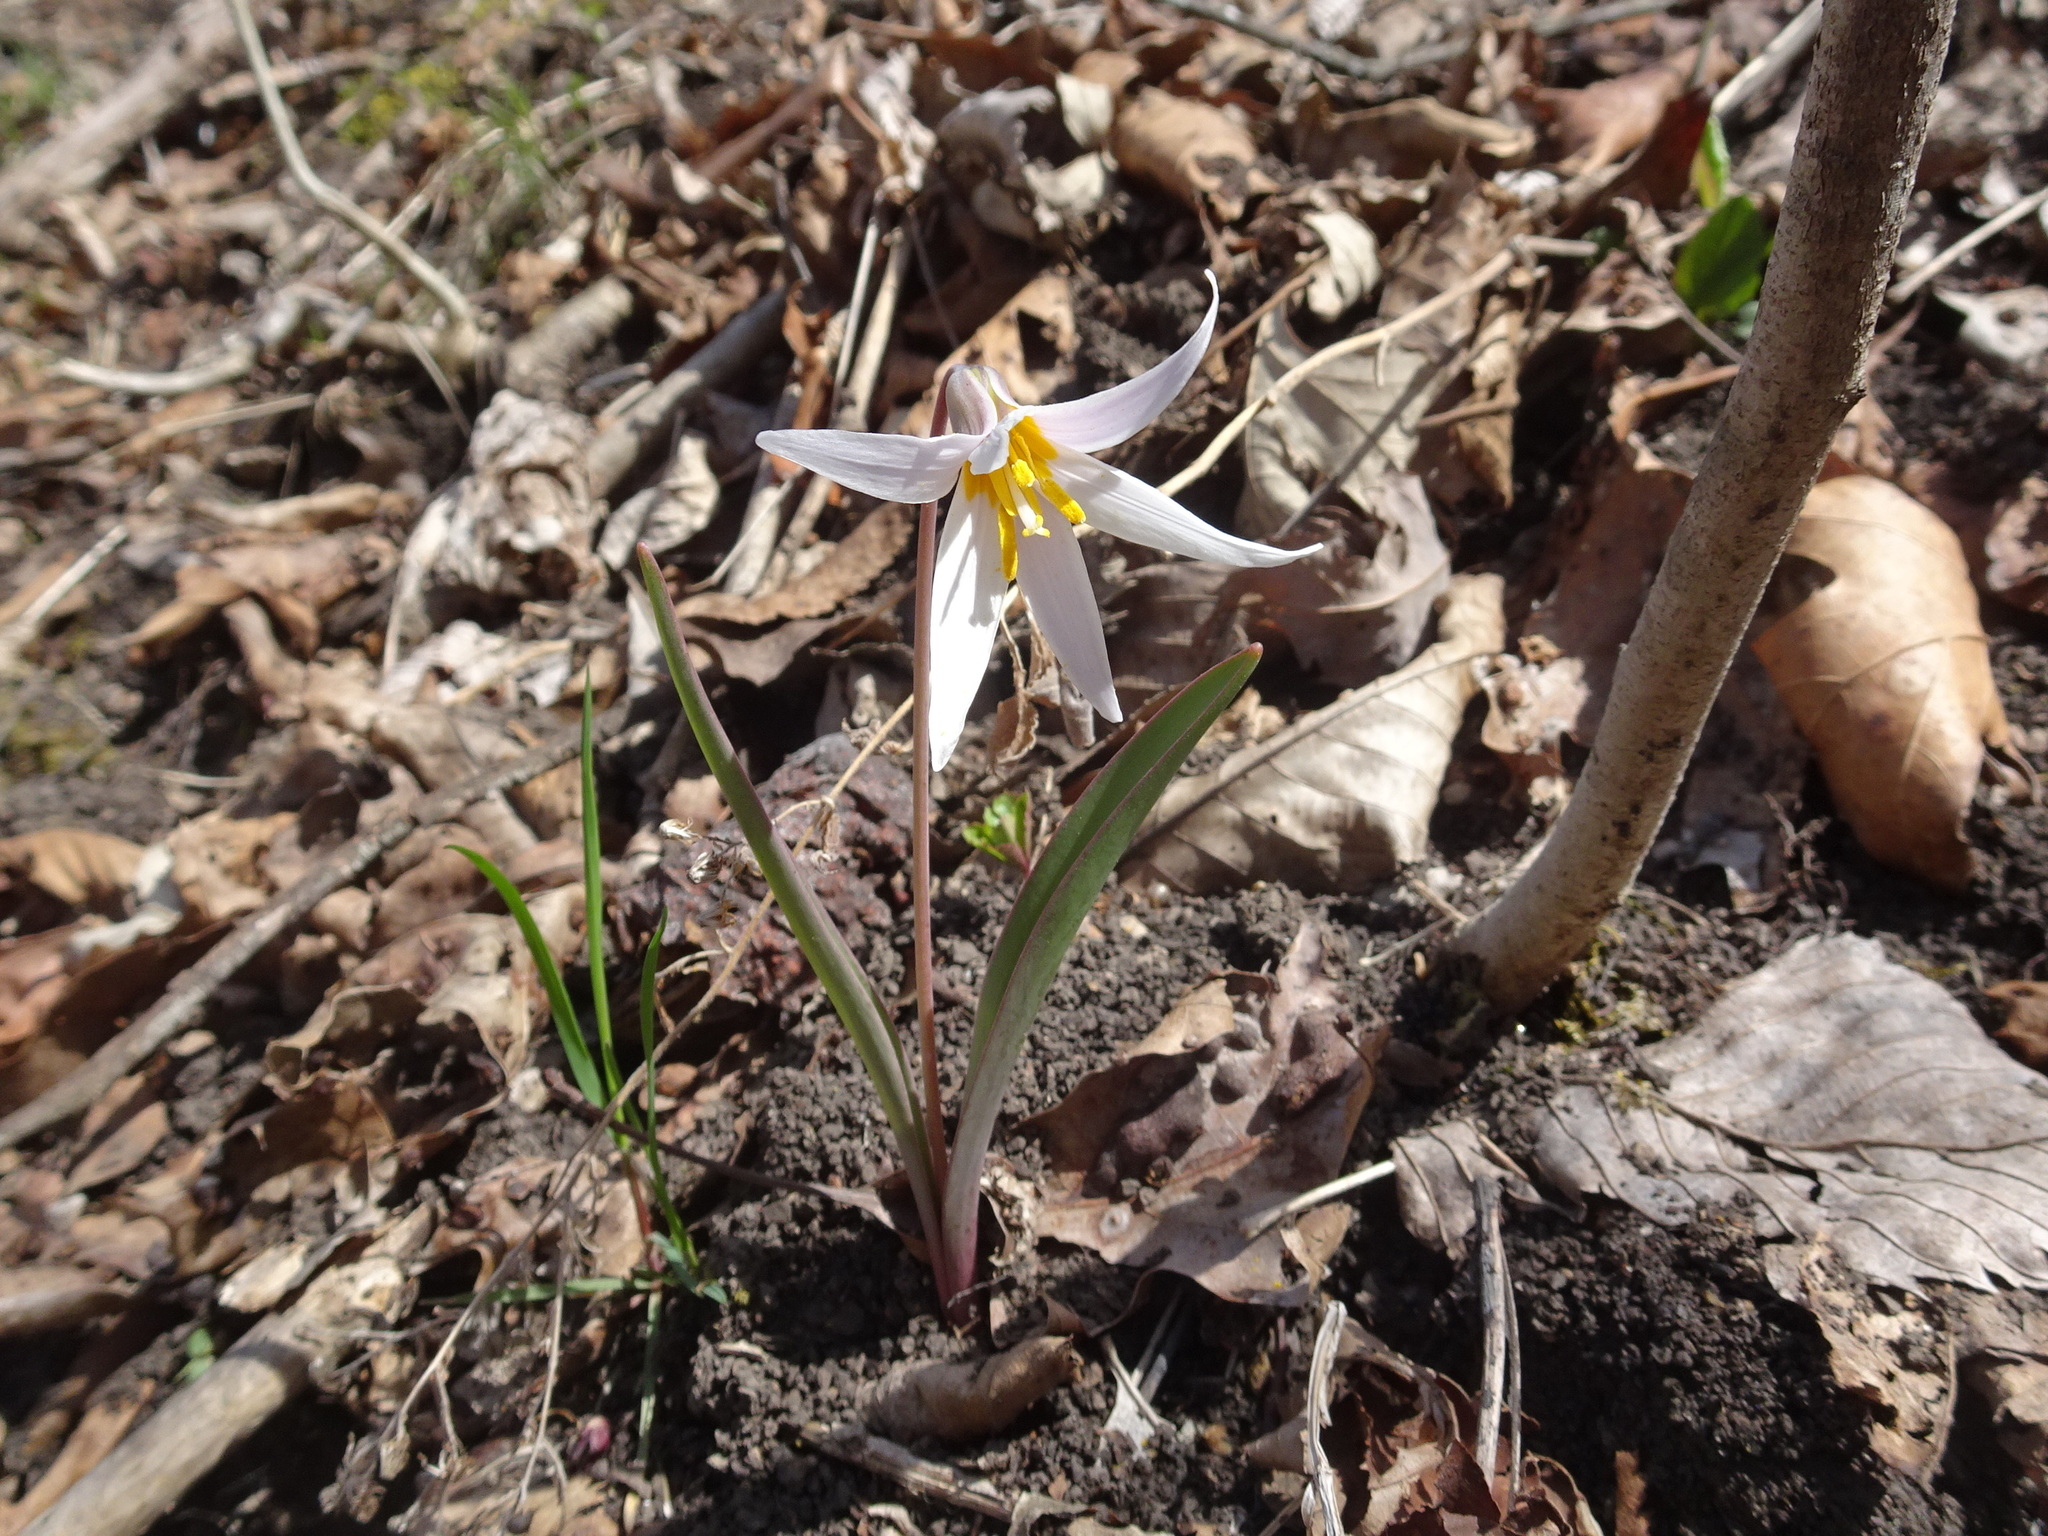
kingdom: Plantae
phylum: Tracheophyta
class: Liliopsida
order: Liliales
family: Liliaceae
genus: Erythronium
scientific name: Erythronium mesochoreum
